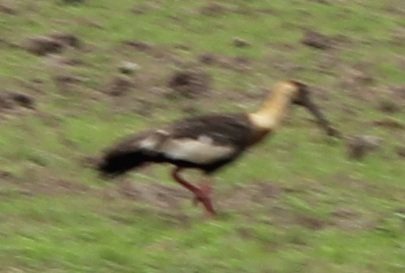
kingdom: Animalia
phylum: Chordata
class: Aves
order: Pelecaniformes
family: Threskiornithidae
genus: Theristicus
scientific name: Theristicus caudatus
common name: Buff-necked ibis
